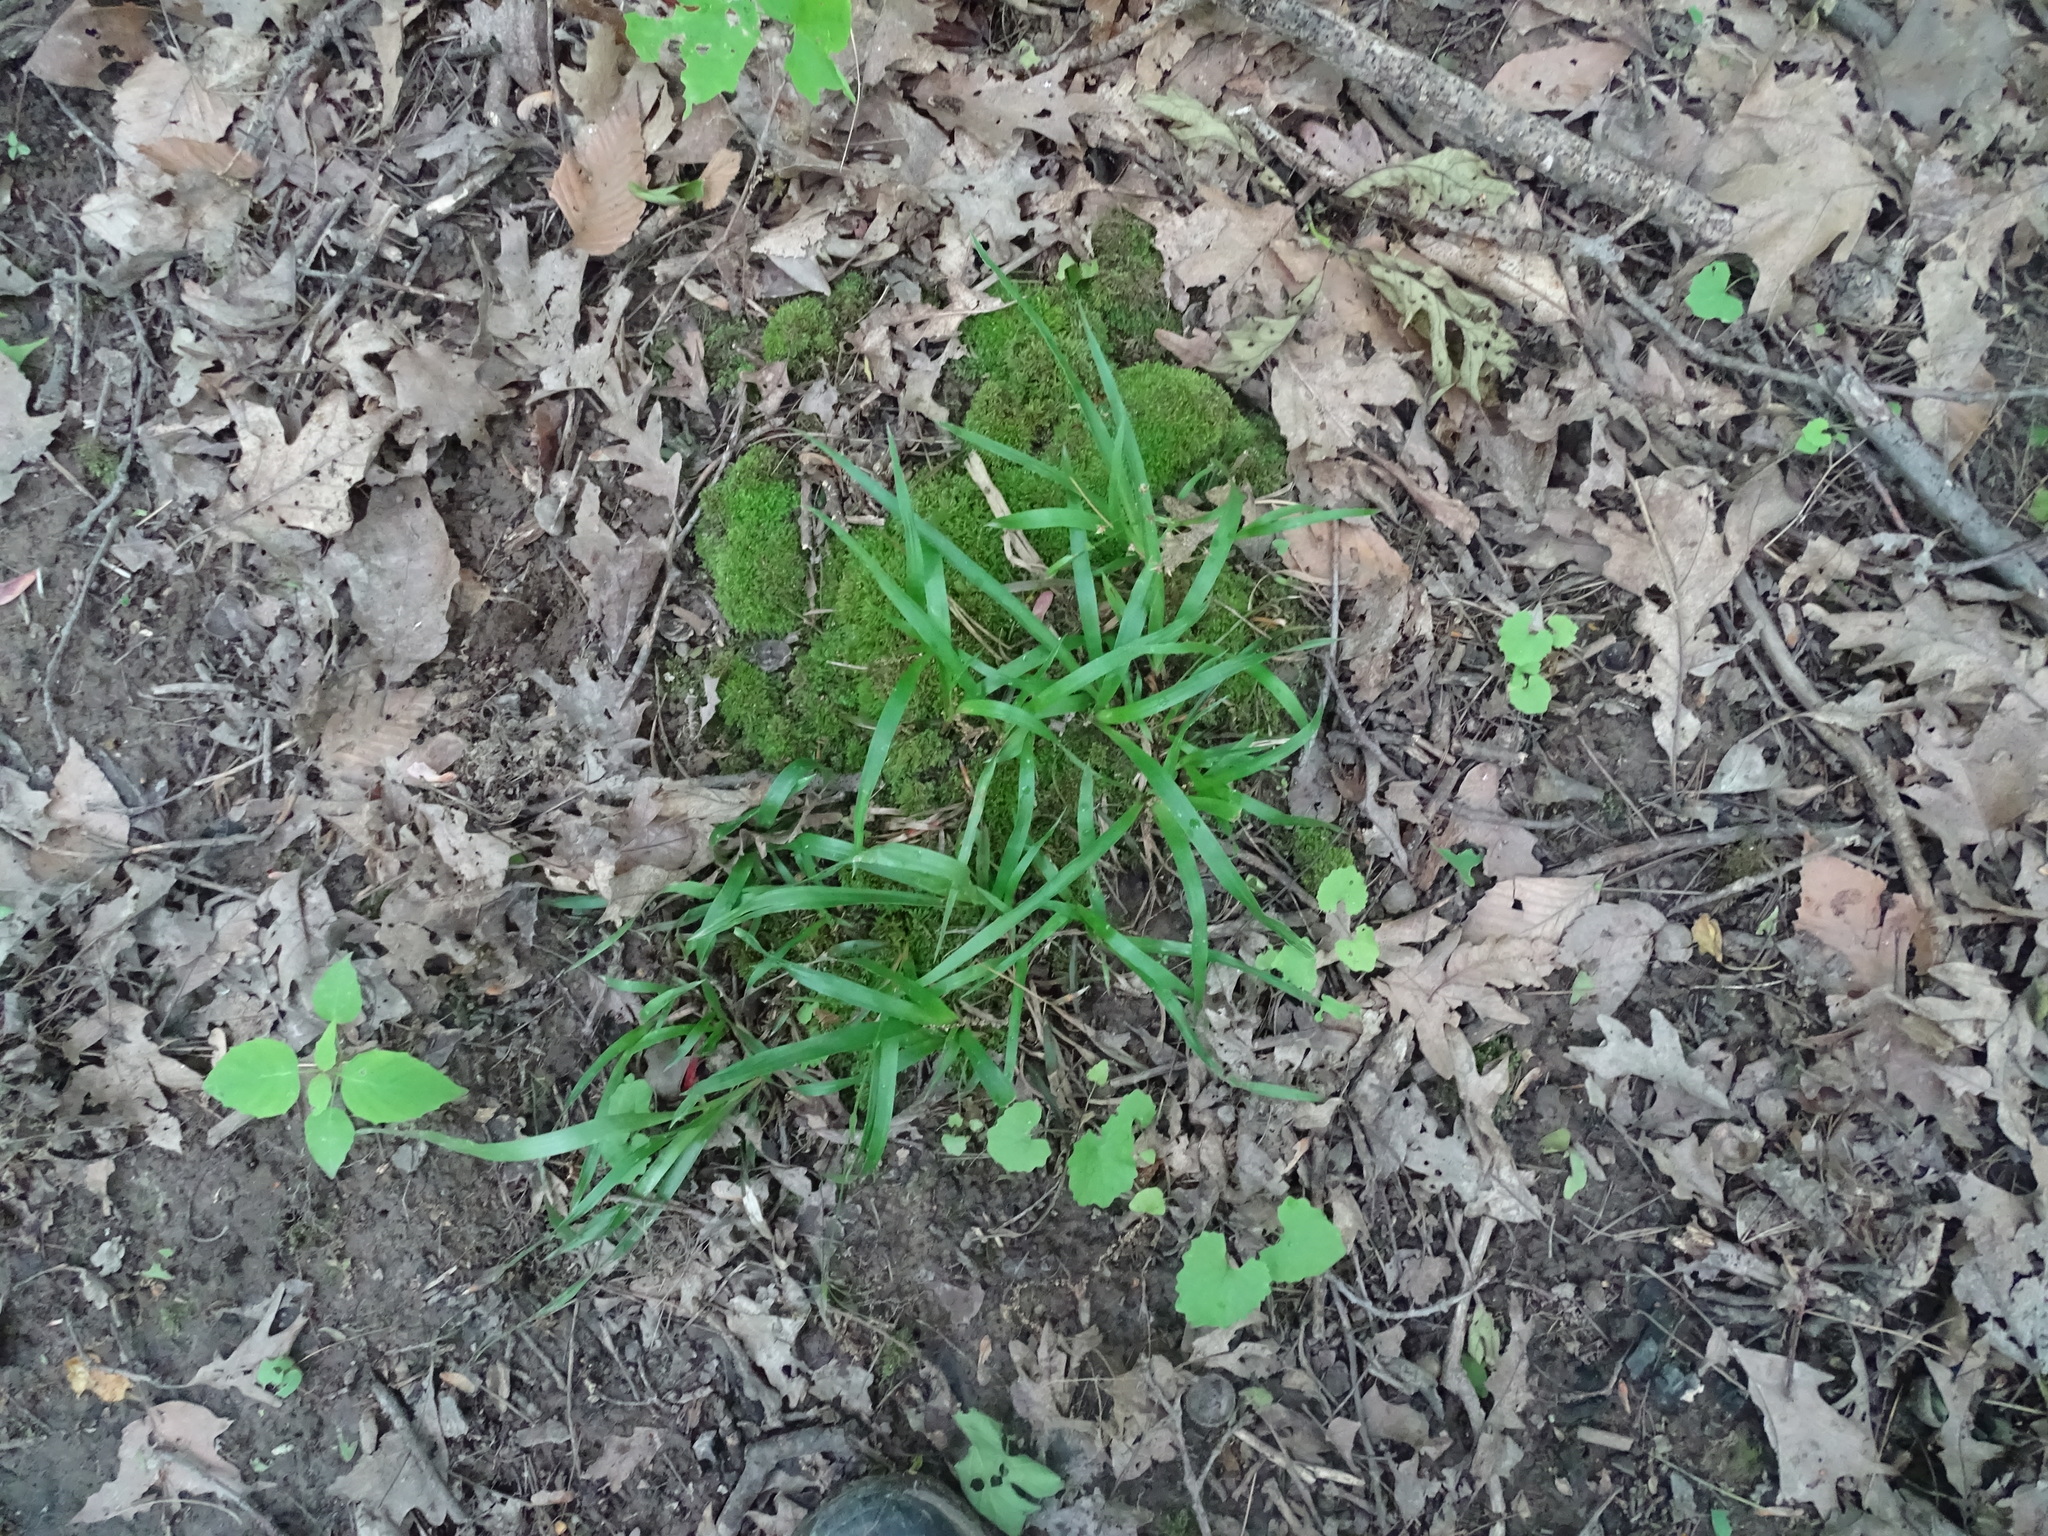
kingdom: Plantae
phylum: Tracheophyta
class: Liliopsida
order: Poales
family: Juncaceae
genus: Luzula
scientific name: Luzula acuminata
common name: Hairy woodrush
